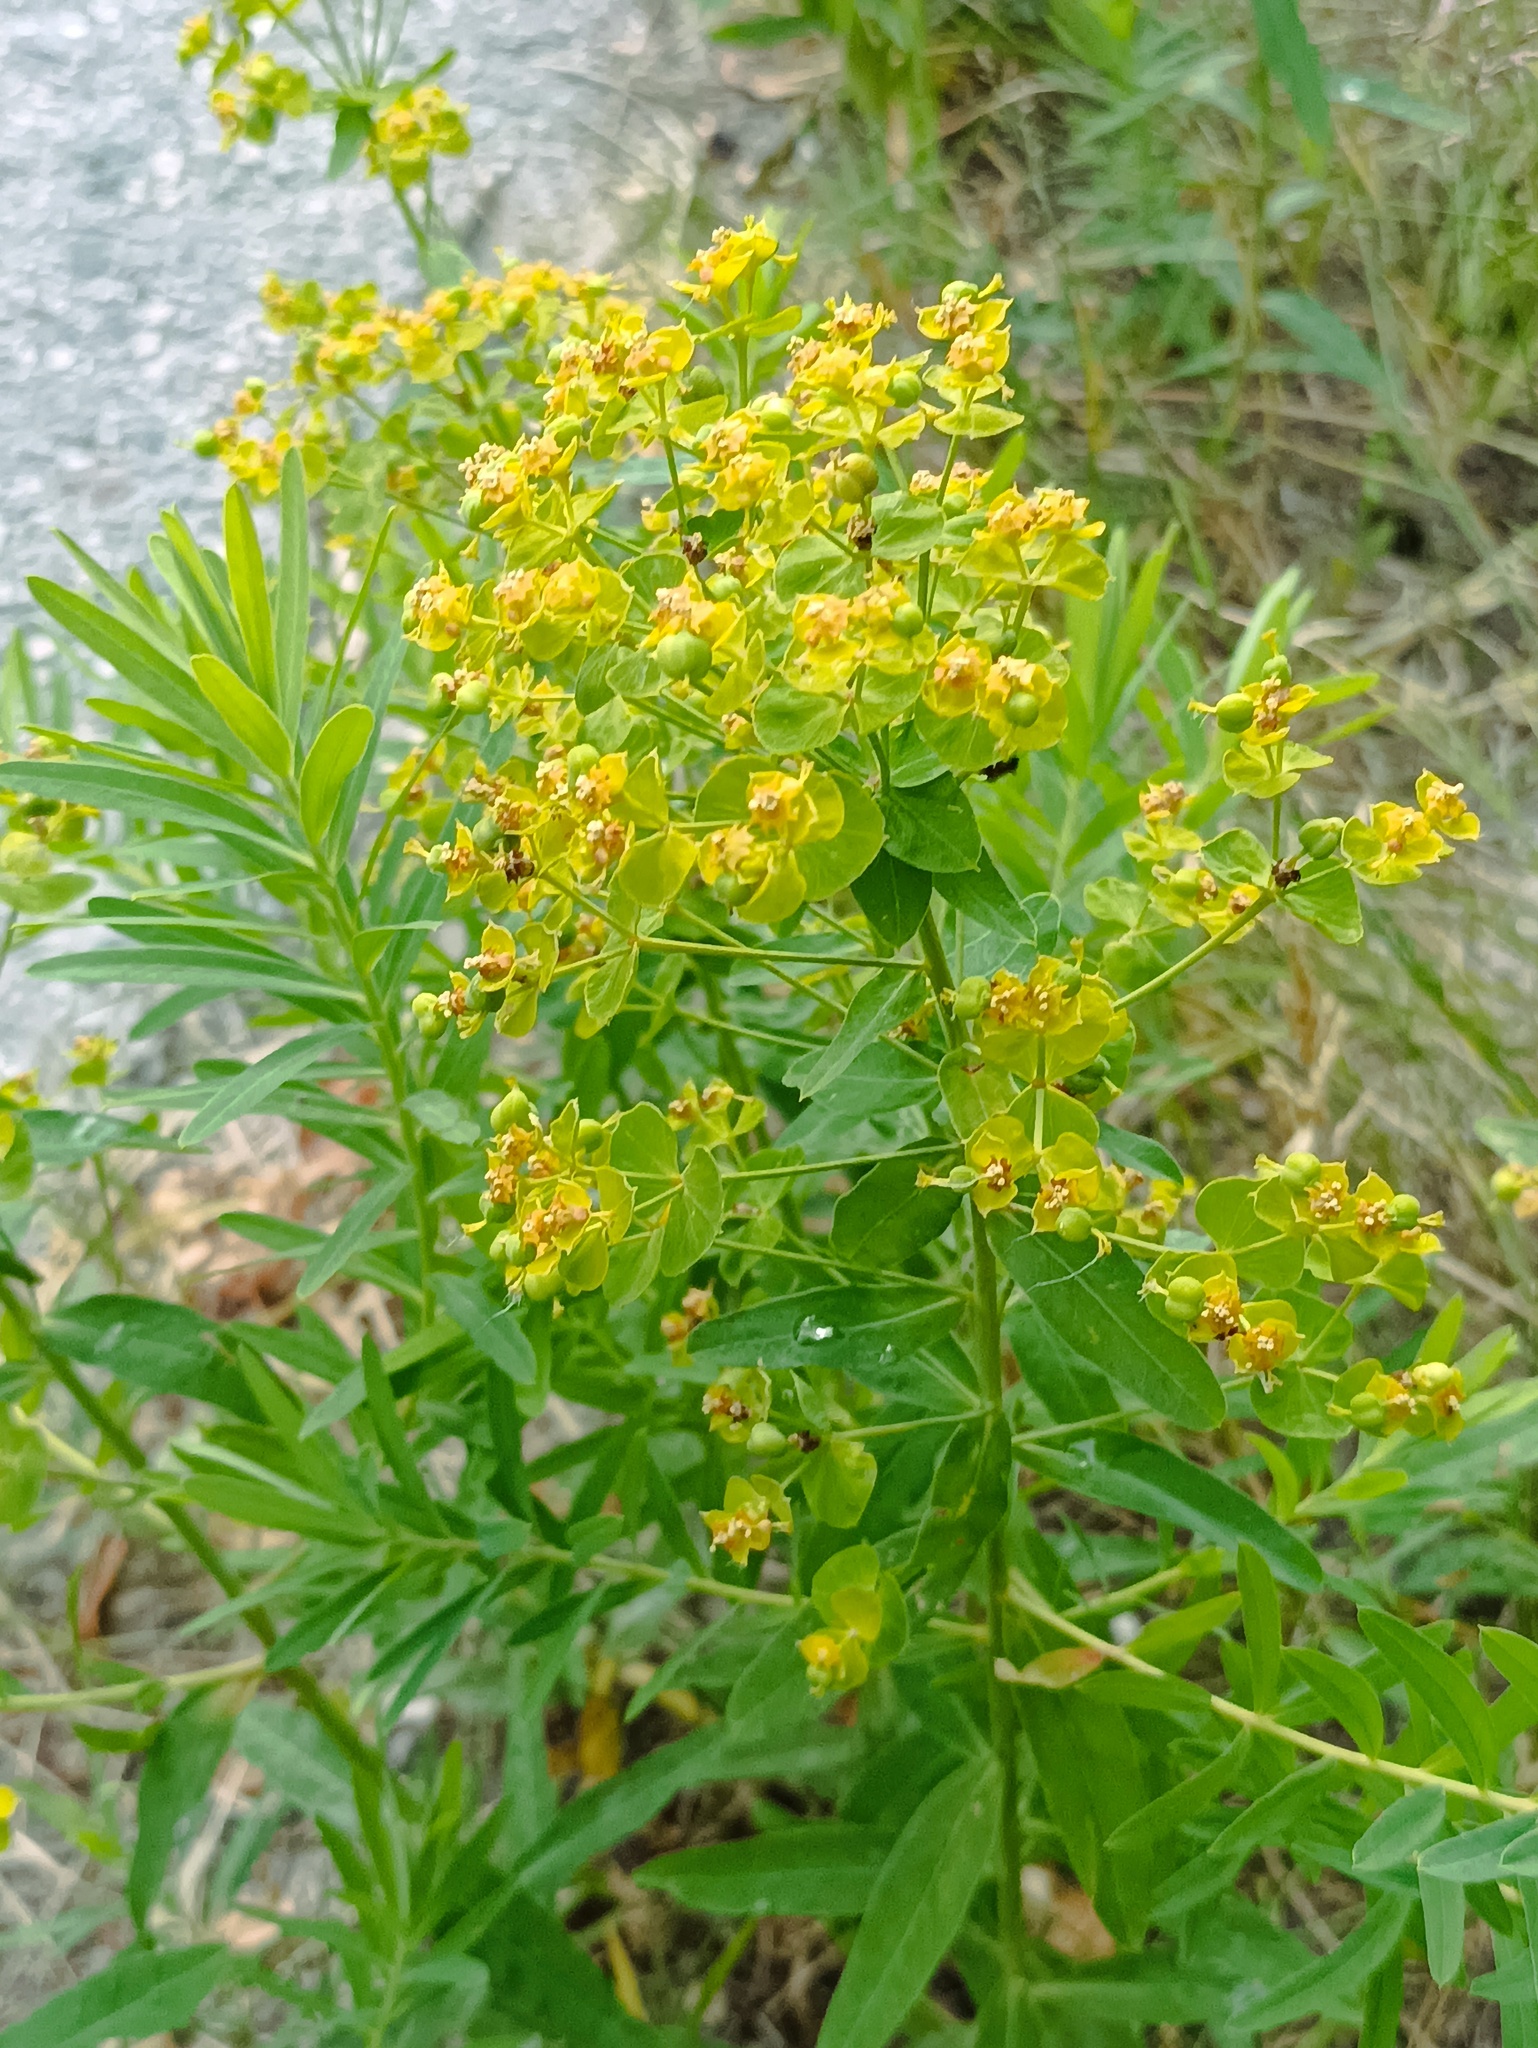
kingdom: Plantae
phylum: Tracheophyta
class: Magnoliopsida
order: Malpighiales
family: Euphorbiaceae
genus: Euphorbia
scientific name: Euphorbia virgata
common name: Leafy spurge
